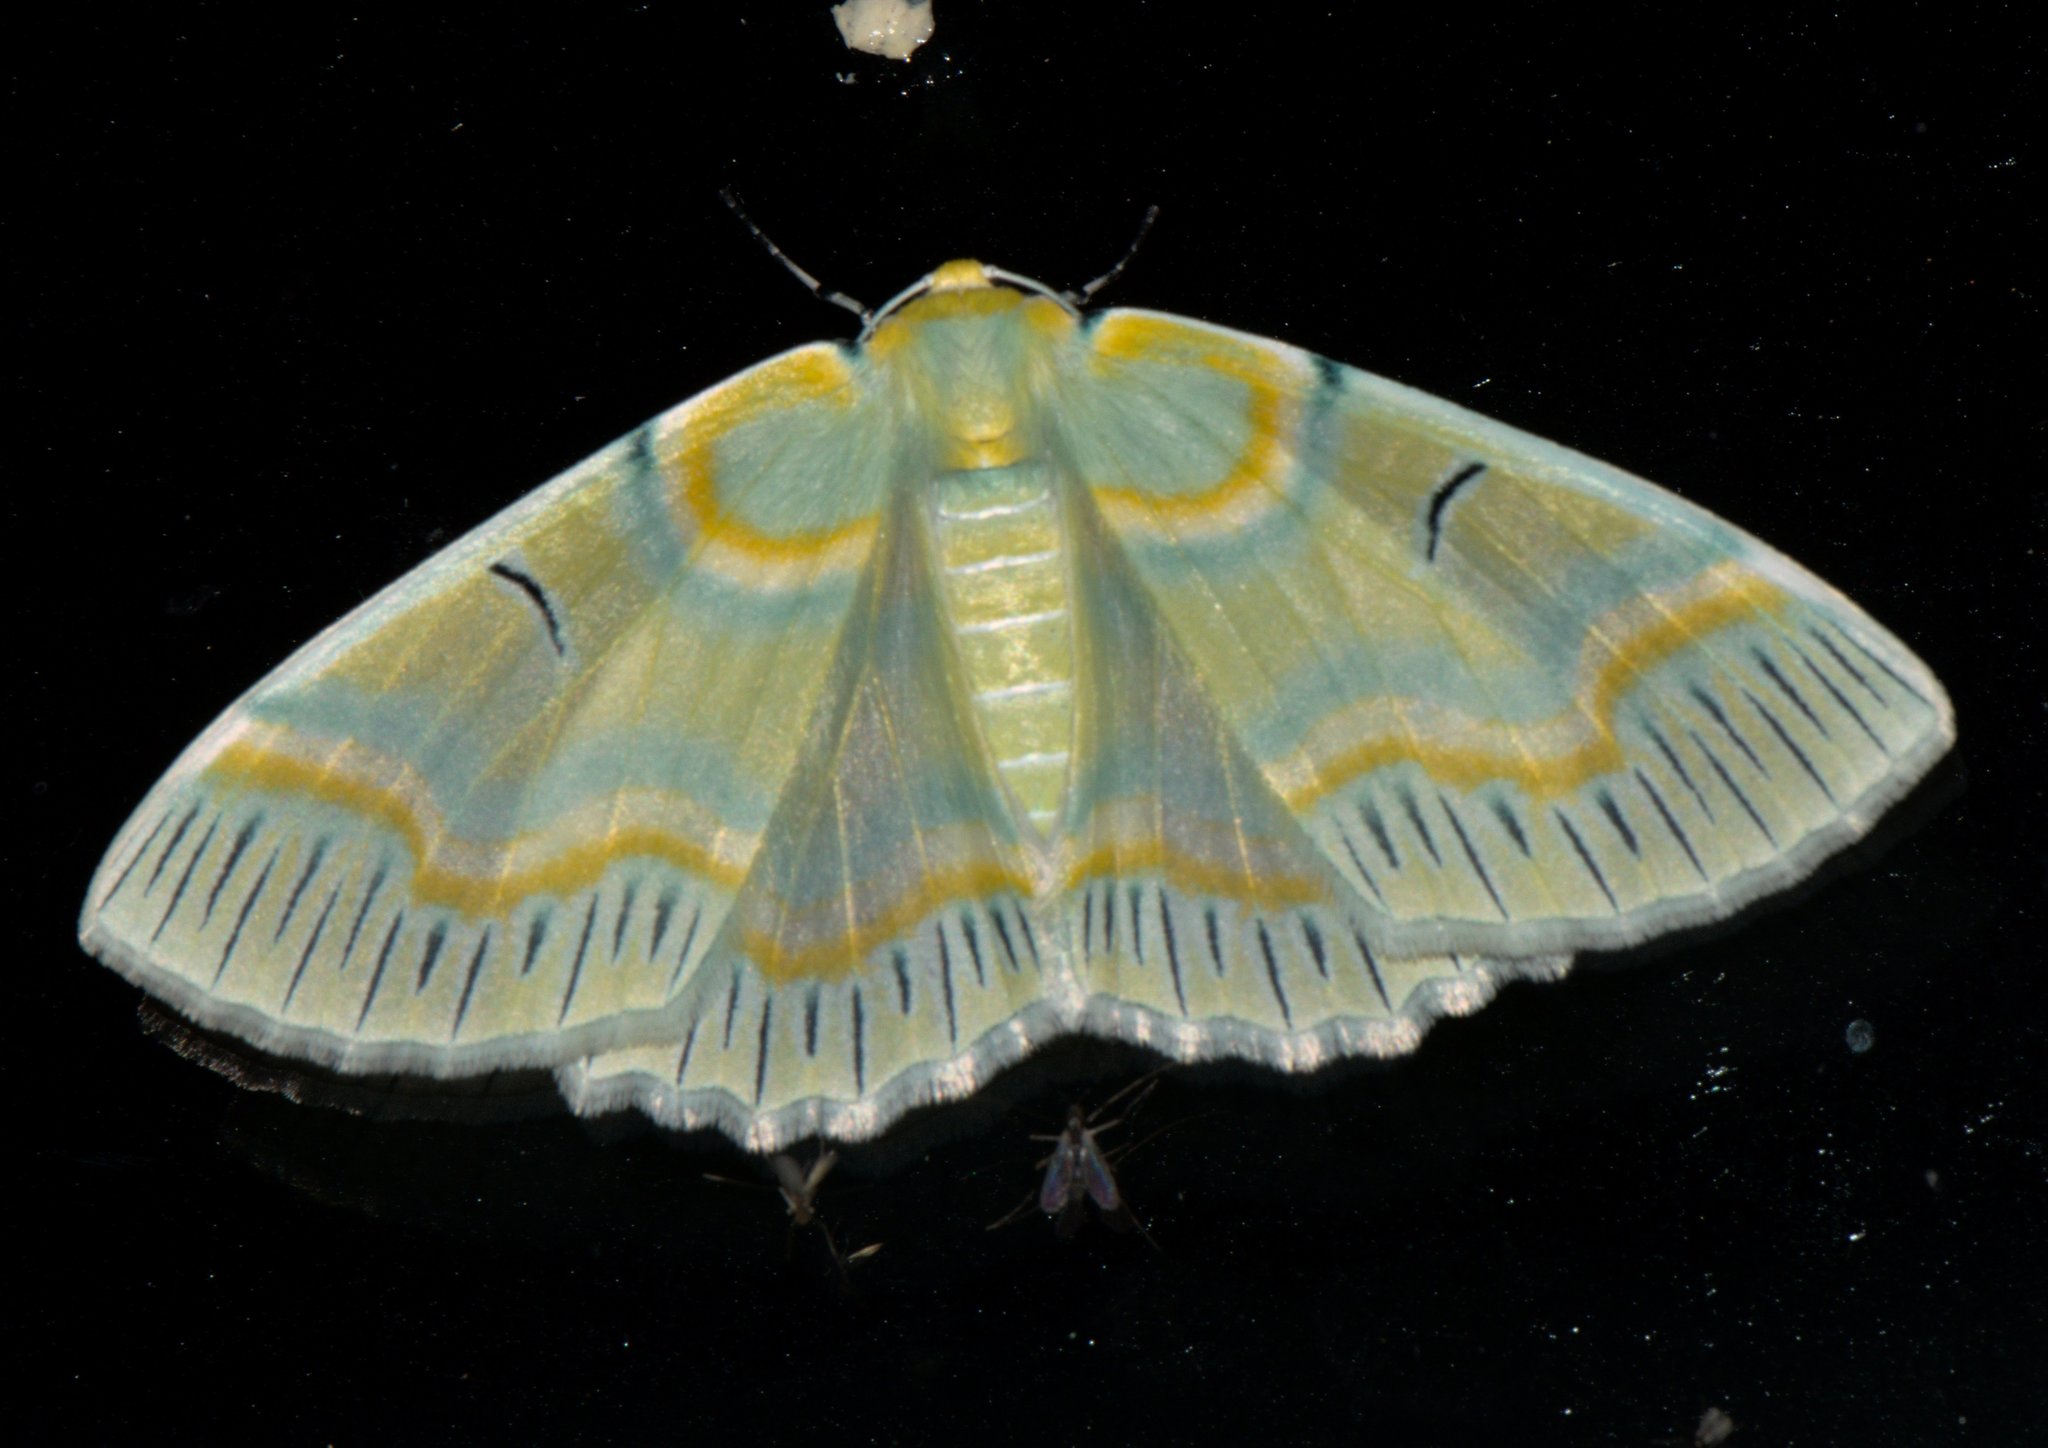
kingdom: Animalia
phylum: Arthropoda
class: Insecta
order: Lepidoptera
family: Geometridae
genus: Iotaphora
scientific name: Iotaphora iridicolor
